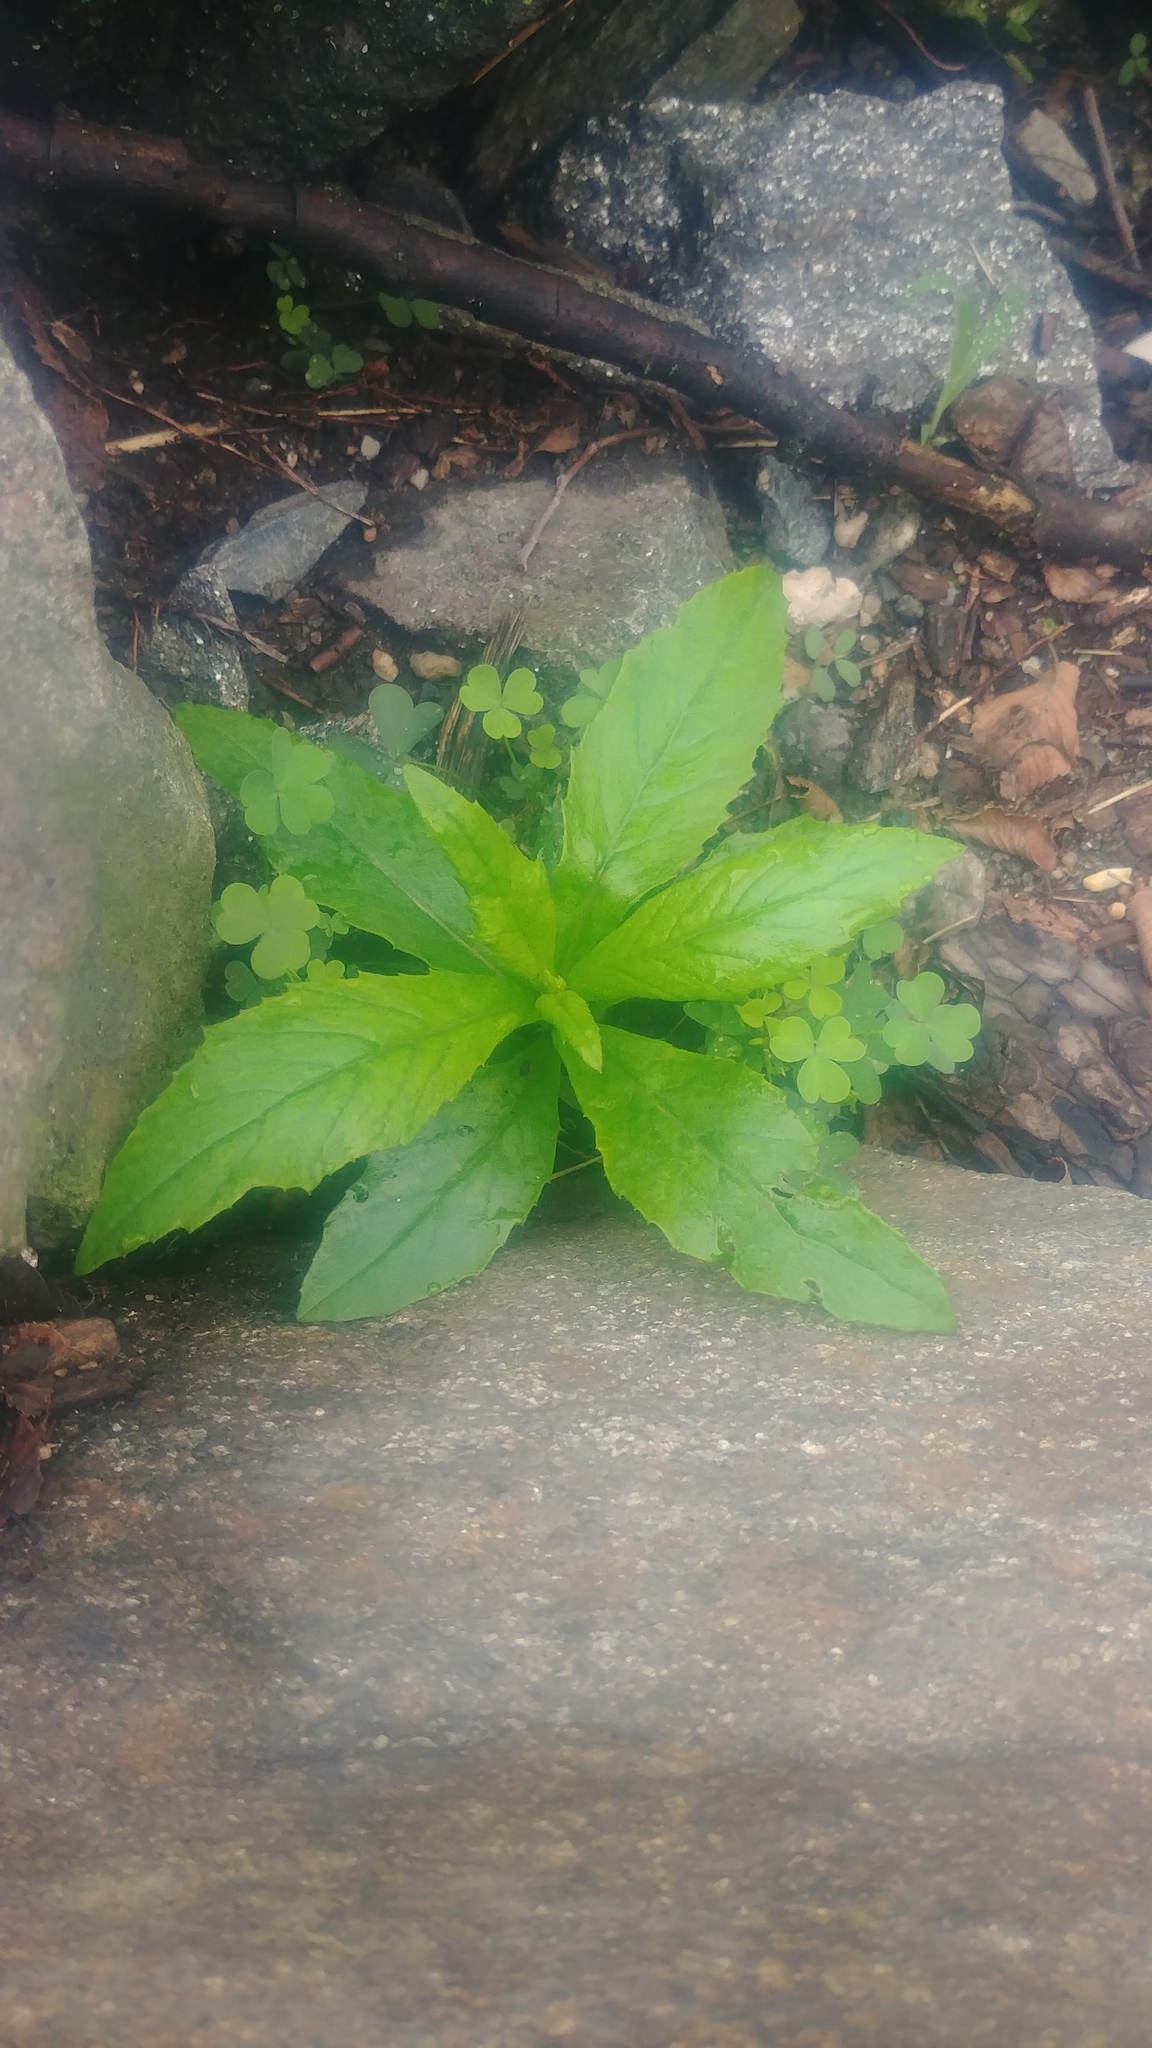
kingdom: Plantae
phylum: Tracheophyta
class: Magnoliopsida
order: Asterales
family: Asteraceae
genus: Erechtites
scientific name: Erechtites hieraciifolius
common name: American burnweed
